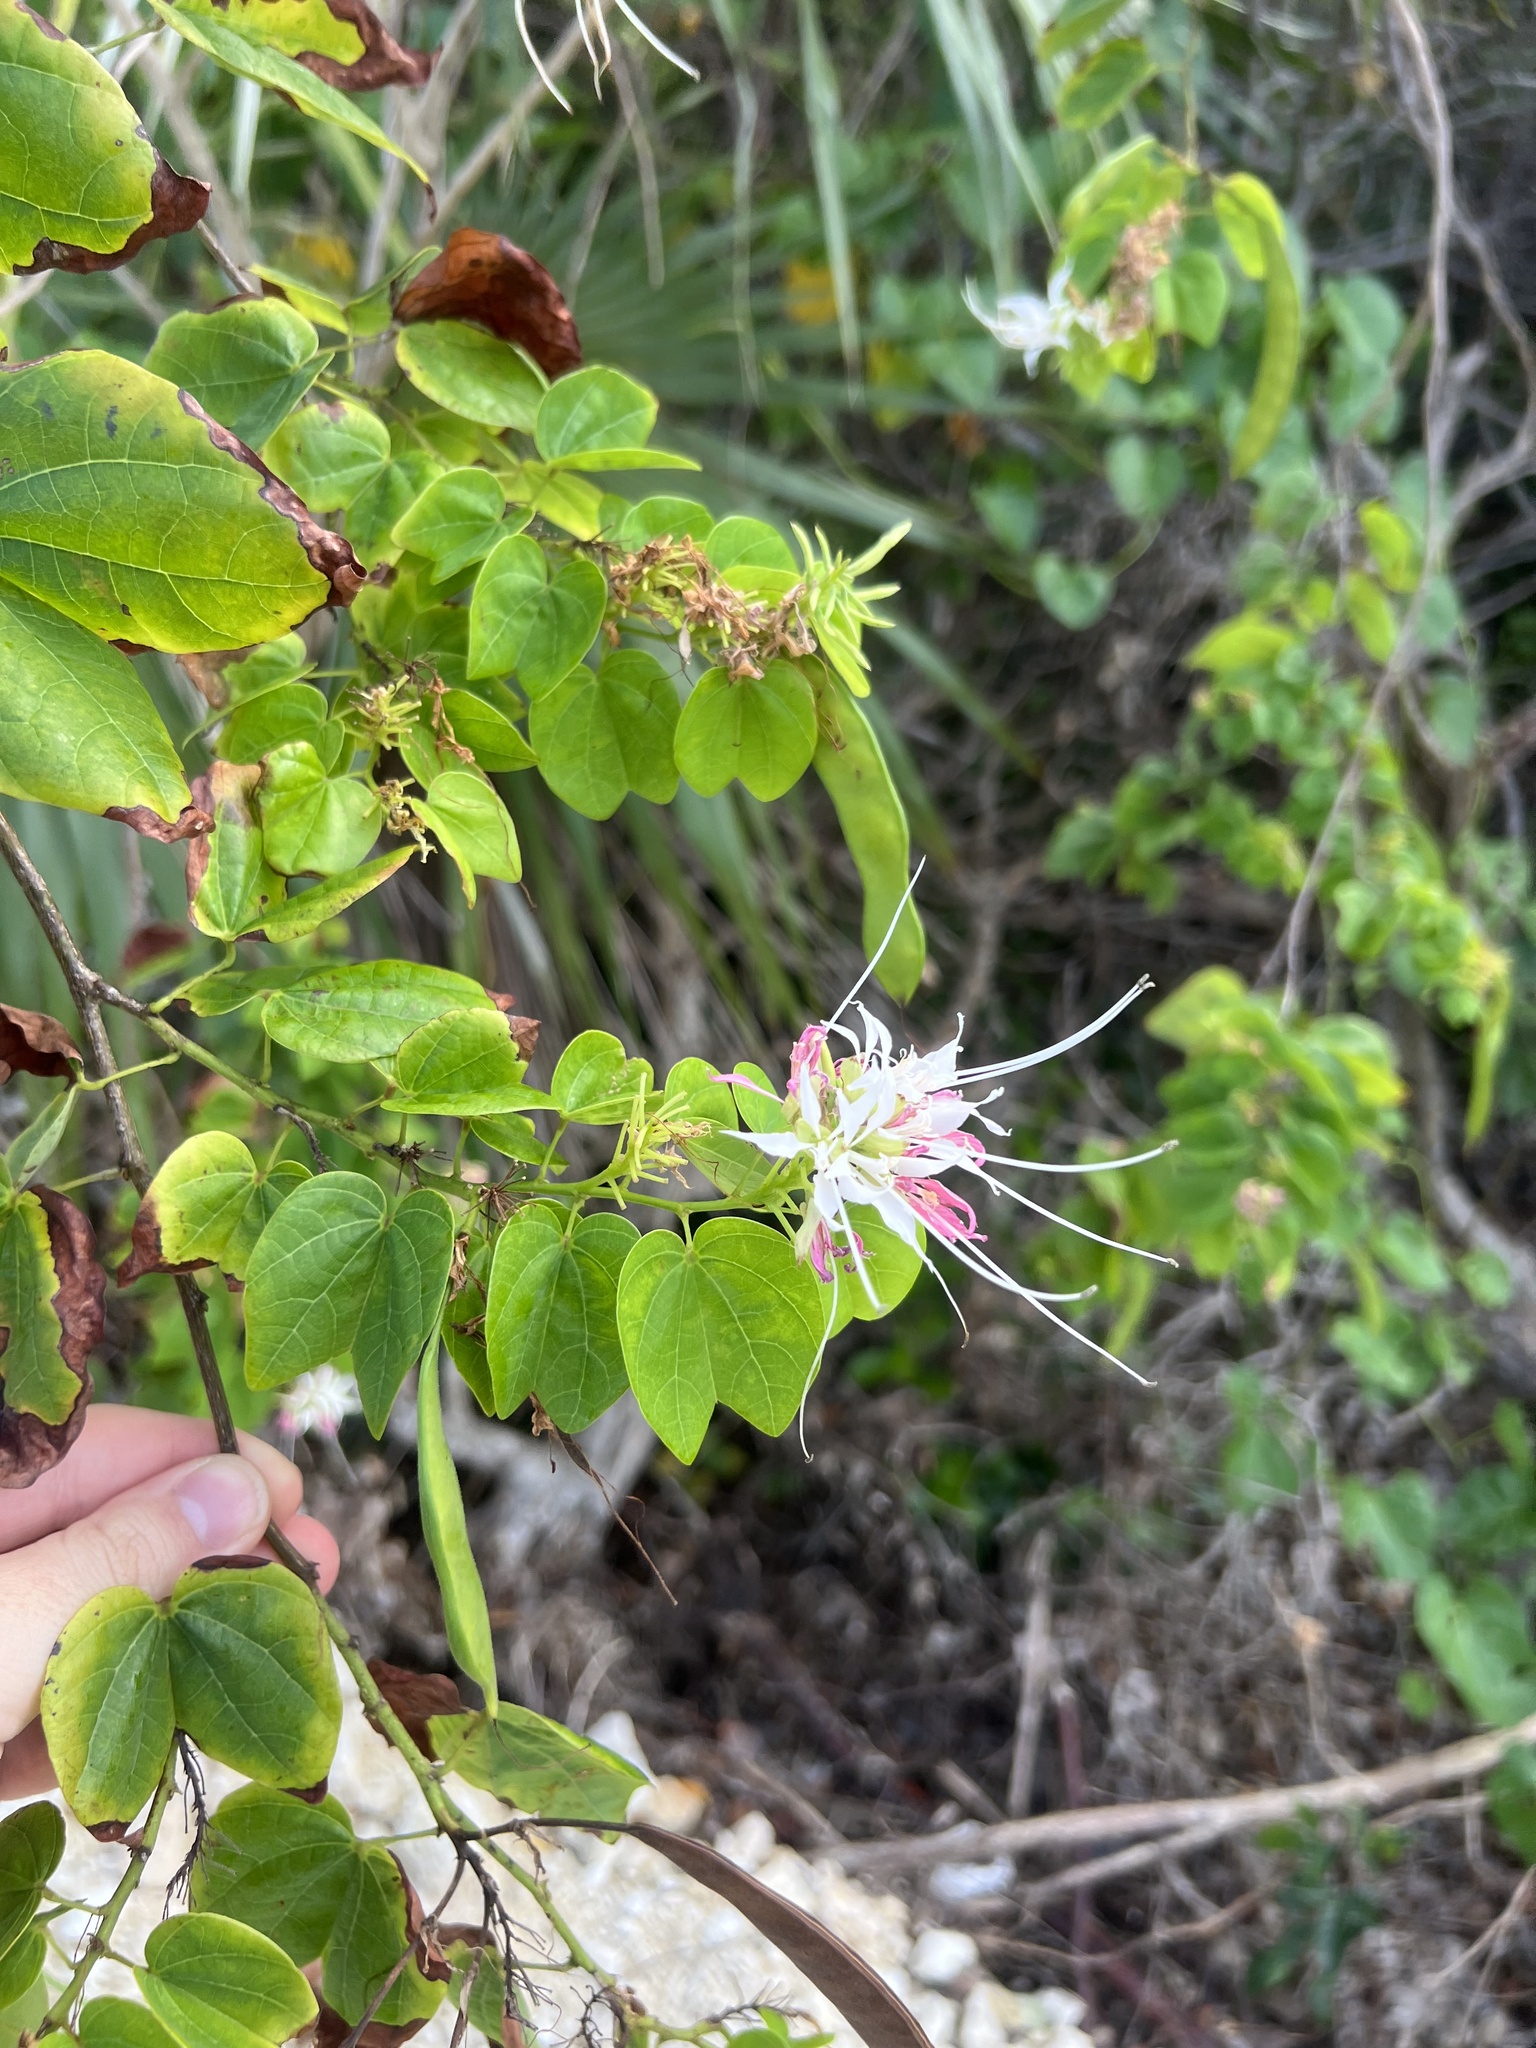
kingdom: Plantae
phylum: Tracheophyta
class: Magnoliopsida
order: Fabales
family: Fabaceae
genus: Bauhinia
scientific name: Bauhinia divaricata
